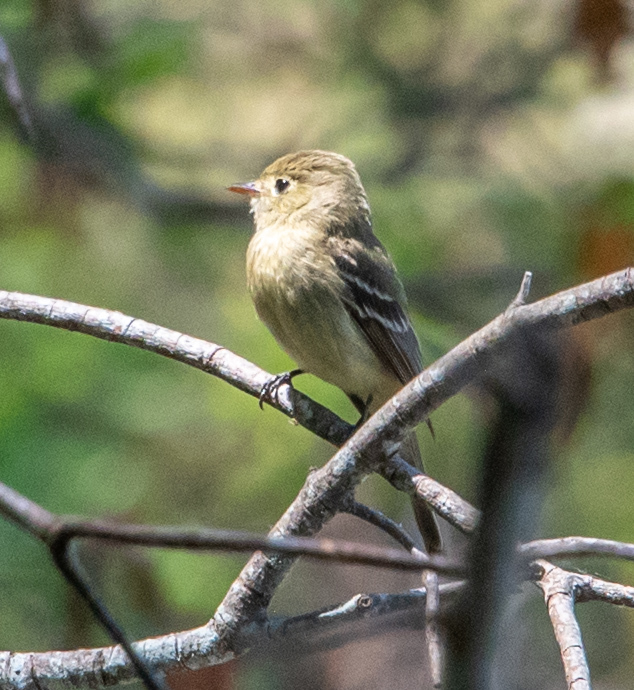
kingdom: Animalia
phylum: Chordata
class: Aves
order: Passeriformes
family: Tyrannidae
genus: Empidonax
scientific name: Empidonax difficilis
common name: Pacific-slope flycatcher
